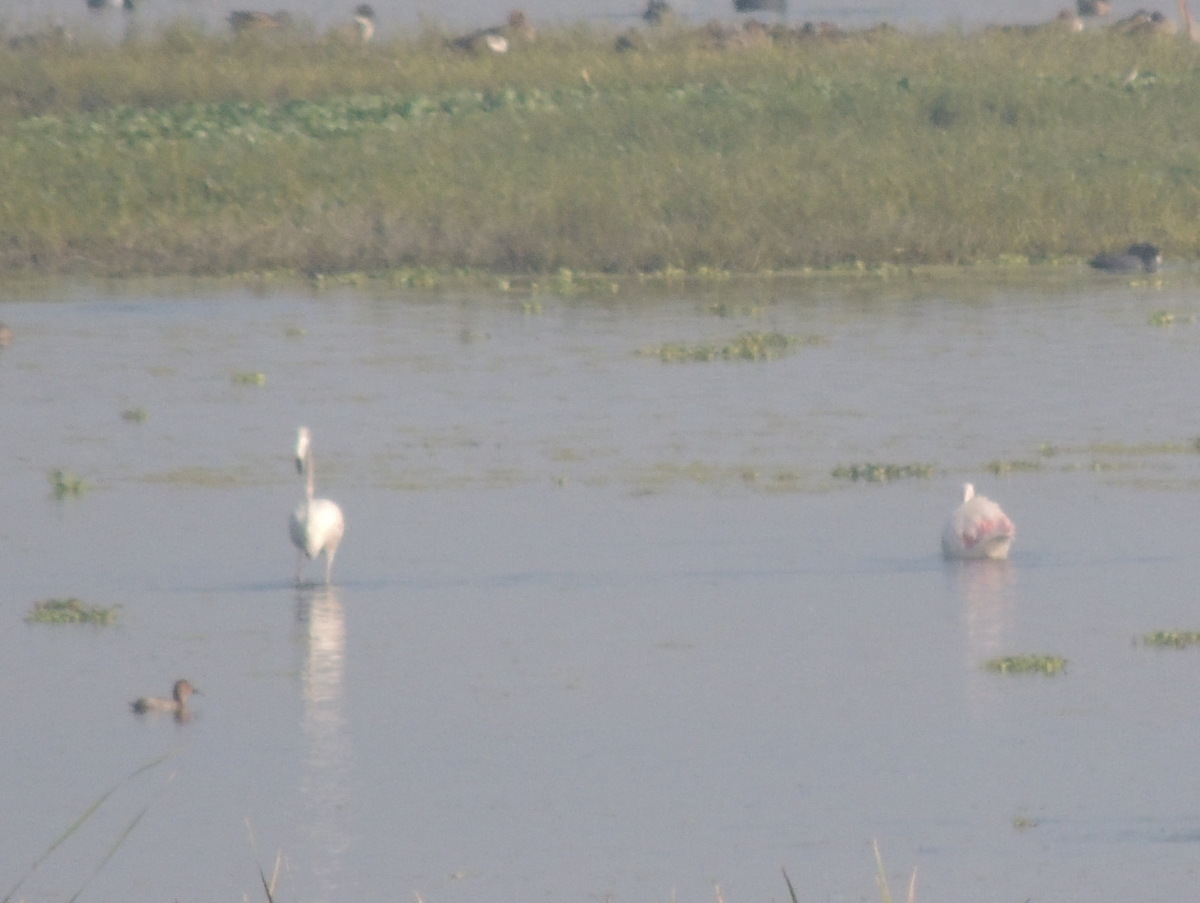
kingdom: Animalia
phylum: Chordata
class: Aves
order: Phoenicopteriformes
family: Phoenicopteridae
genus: Phoenicopterus
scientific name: Phoenicopterus roseus
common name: Greater flamingo
